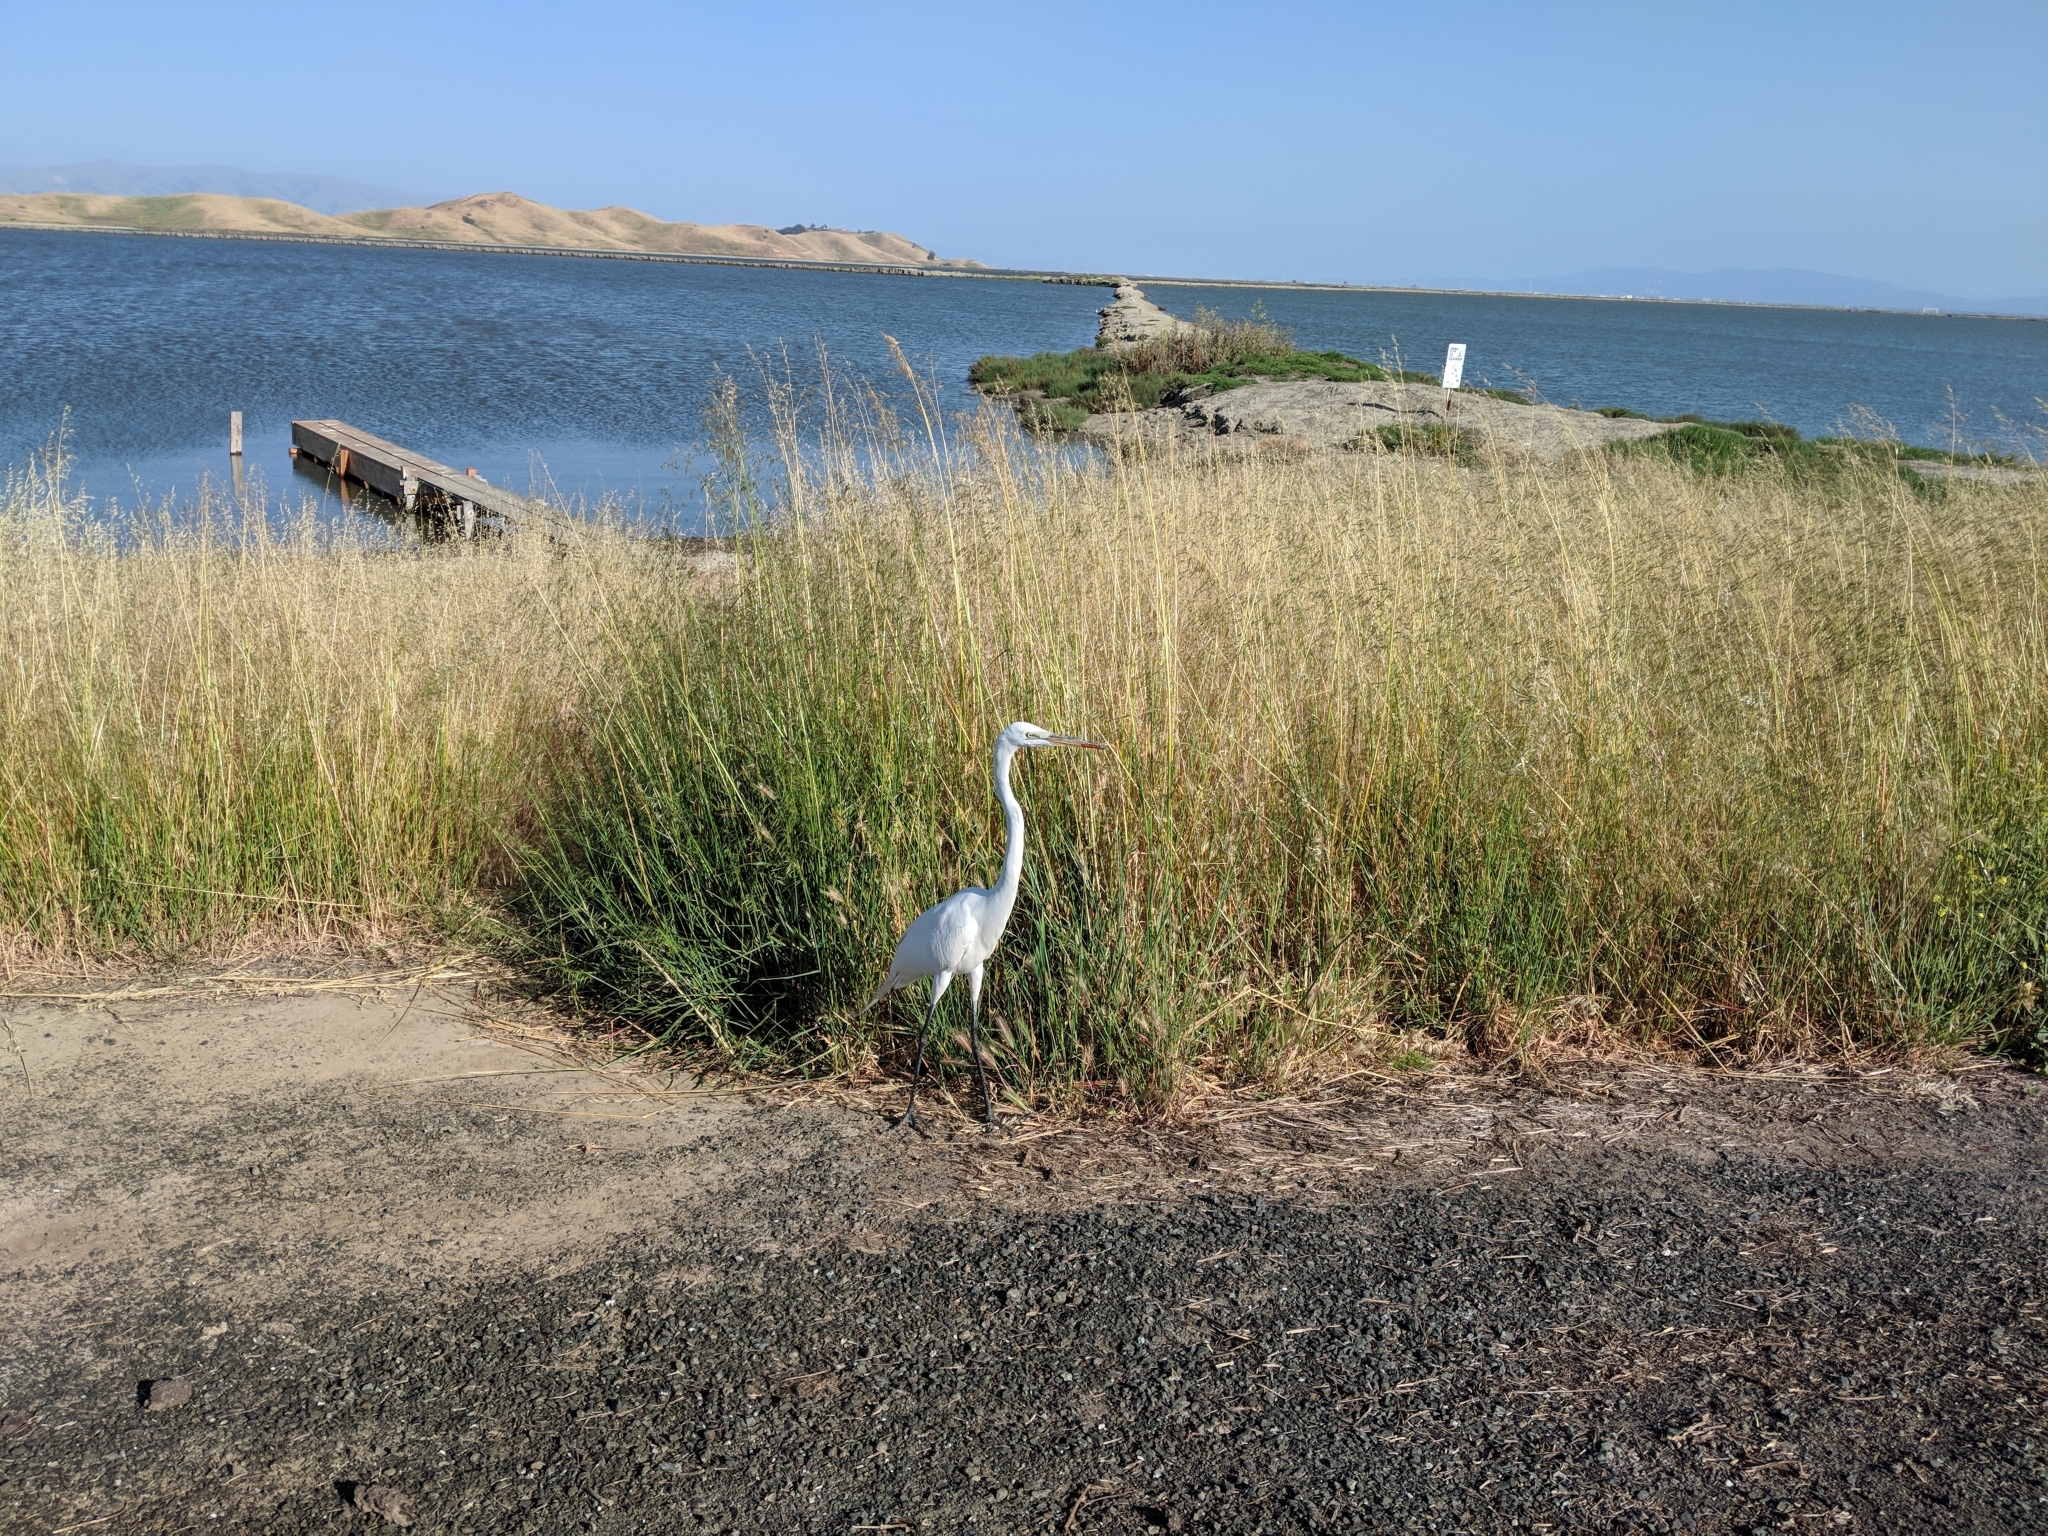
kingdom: Animalia
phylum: Chordata
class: Aves
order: Pelecaniformes
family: Ardeidae
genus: Ardea
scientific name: Ardea alba
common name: Great egret
